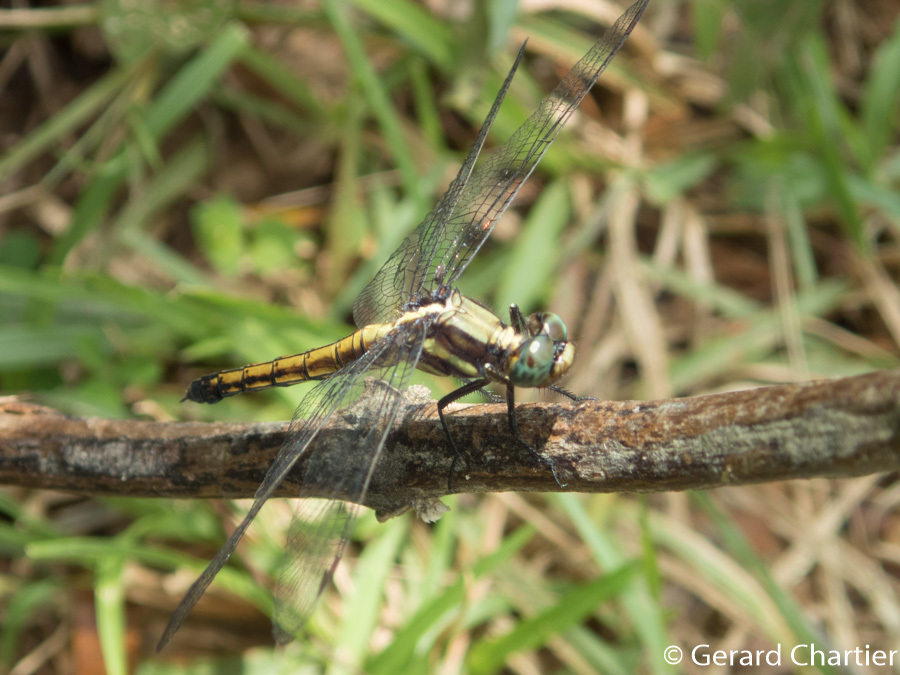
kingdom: Animalia
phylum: Arthropoda
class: Insecta
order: Odonata
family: Libellulidae
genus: Orthetrum
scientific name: Orthetrum glaucum
